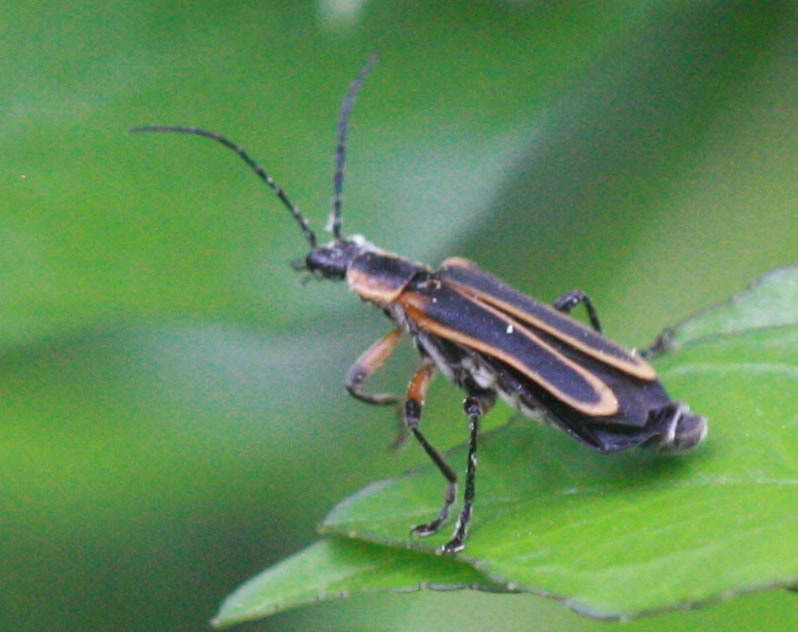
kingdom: Animalia
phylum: Arthropoda
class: Insecta
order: Coleoptera
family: Cantharidae
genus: Chauliognathus
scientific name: Chauliognathus marginatus
